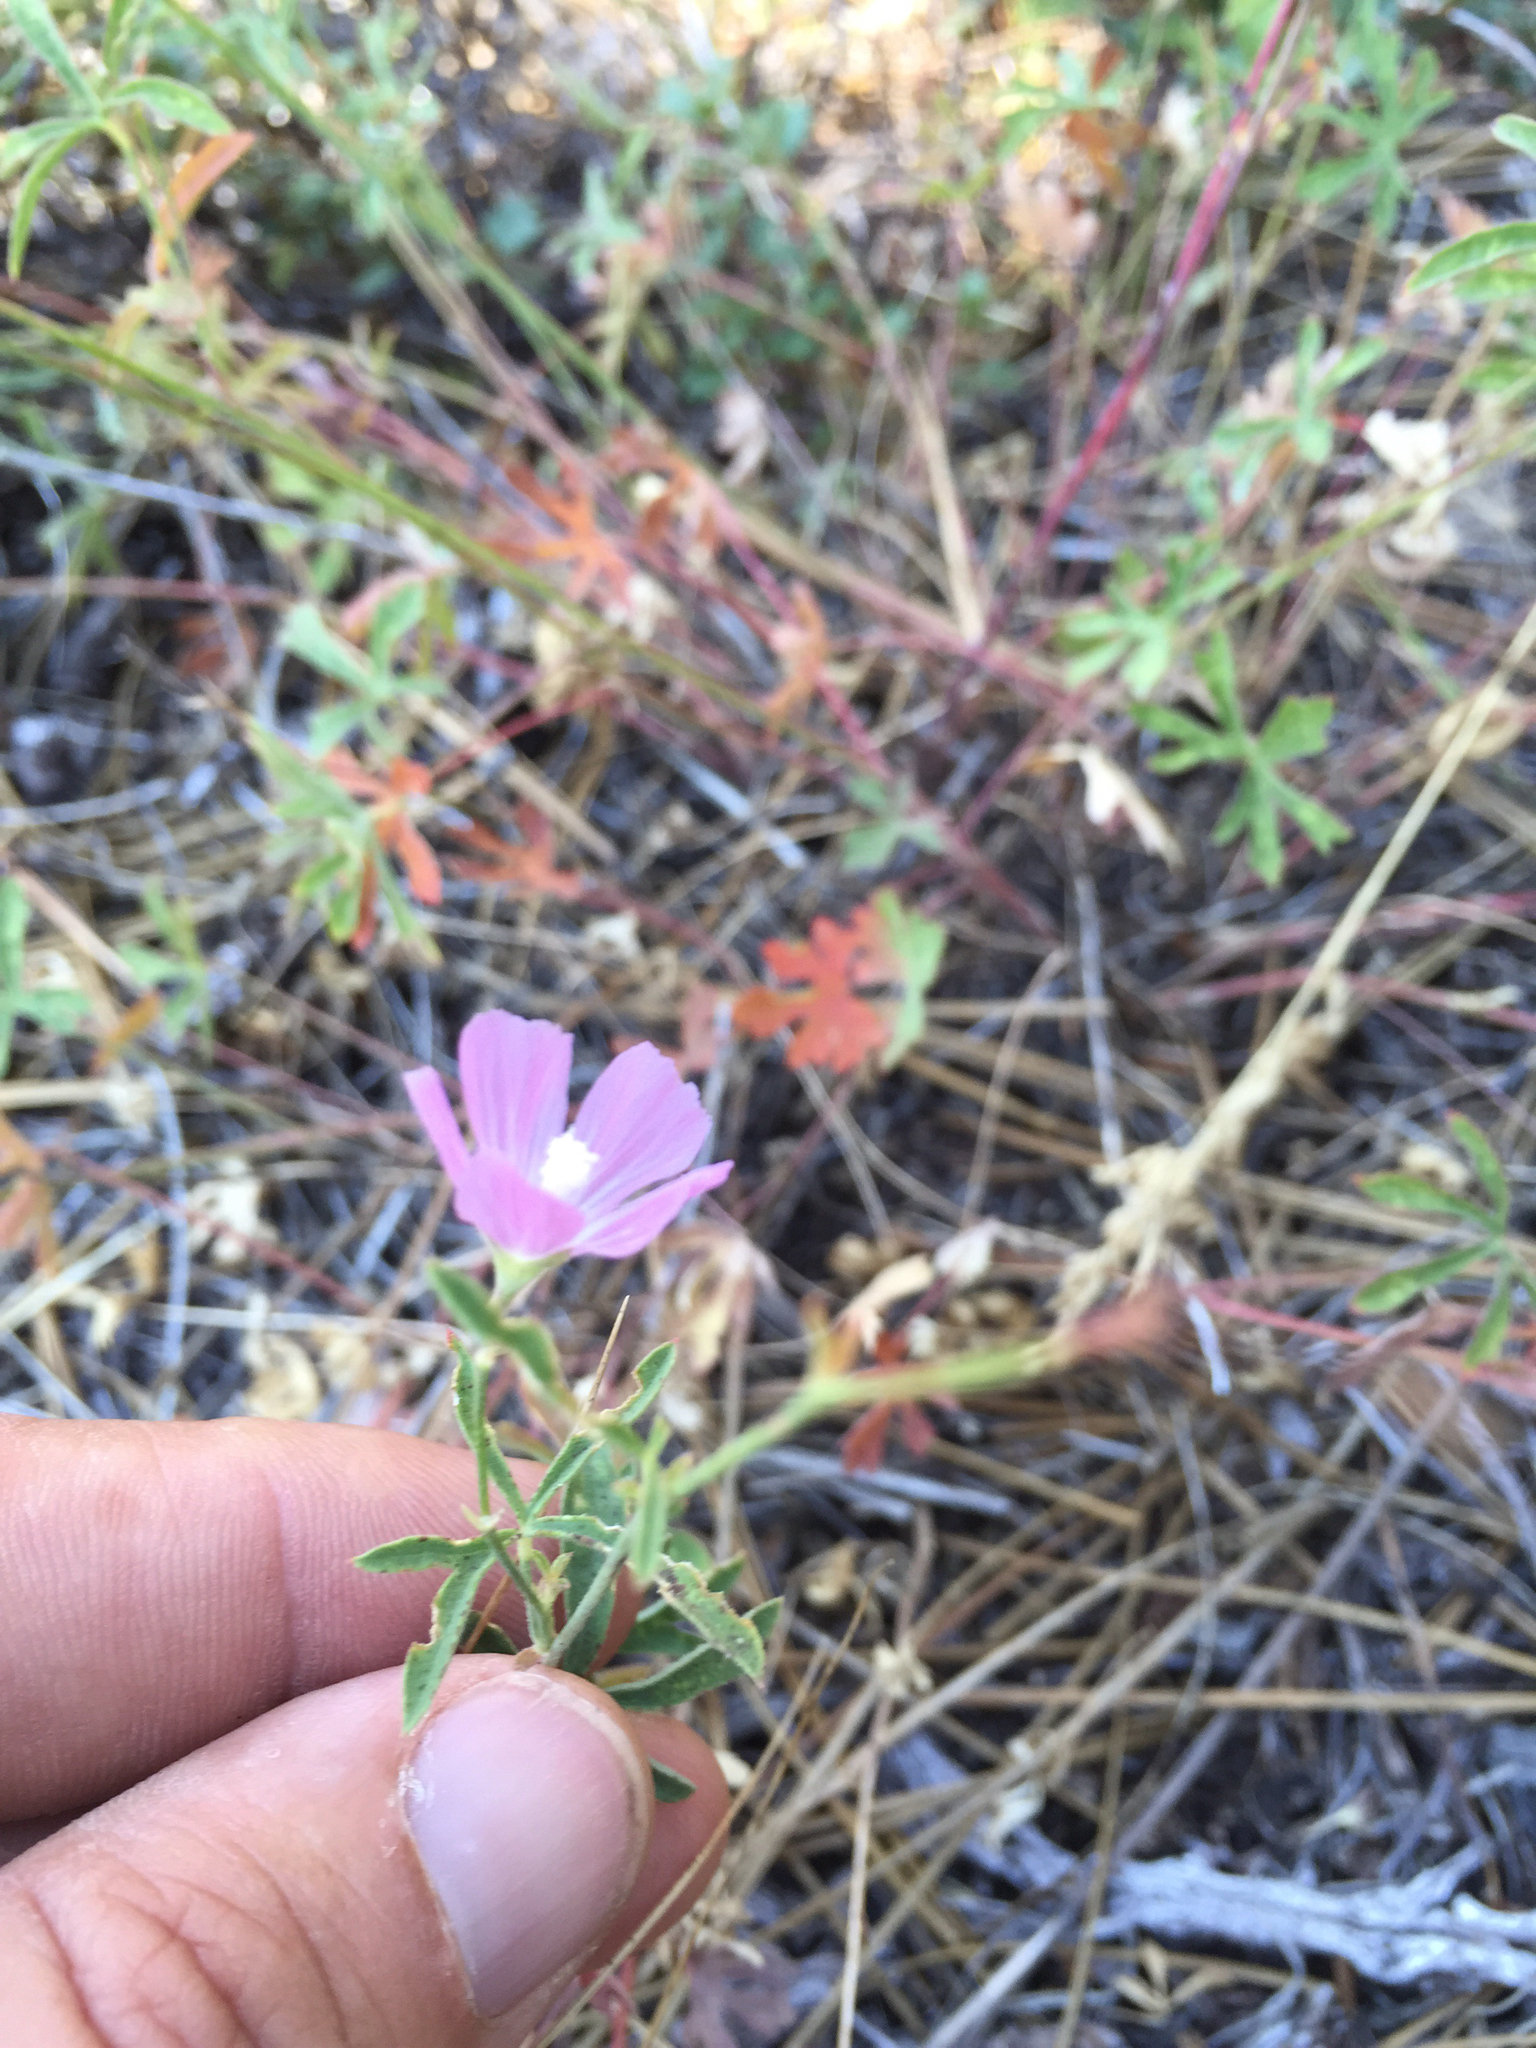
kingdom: Plantae
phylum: Tracheophyta
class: Magnoliopsida
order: Malvales
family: Malvaceae
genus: Sidalcea
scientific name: Sidalcea glaucescens
